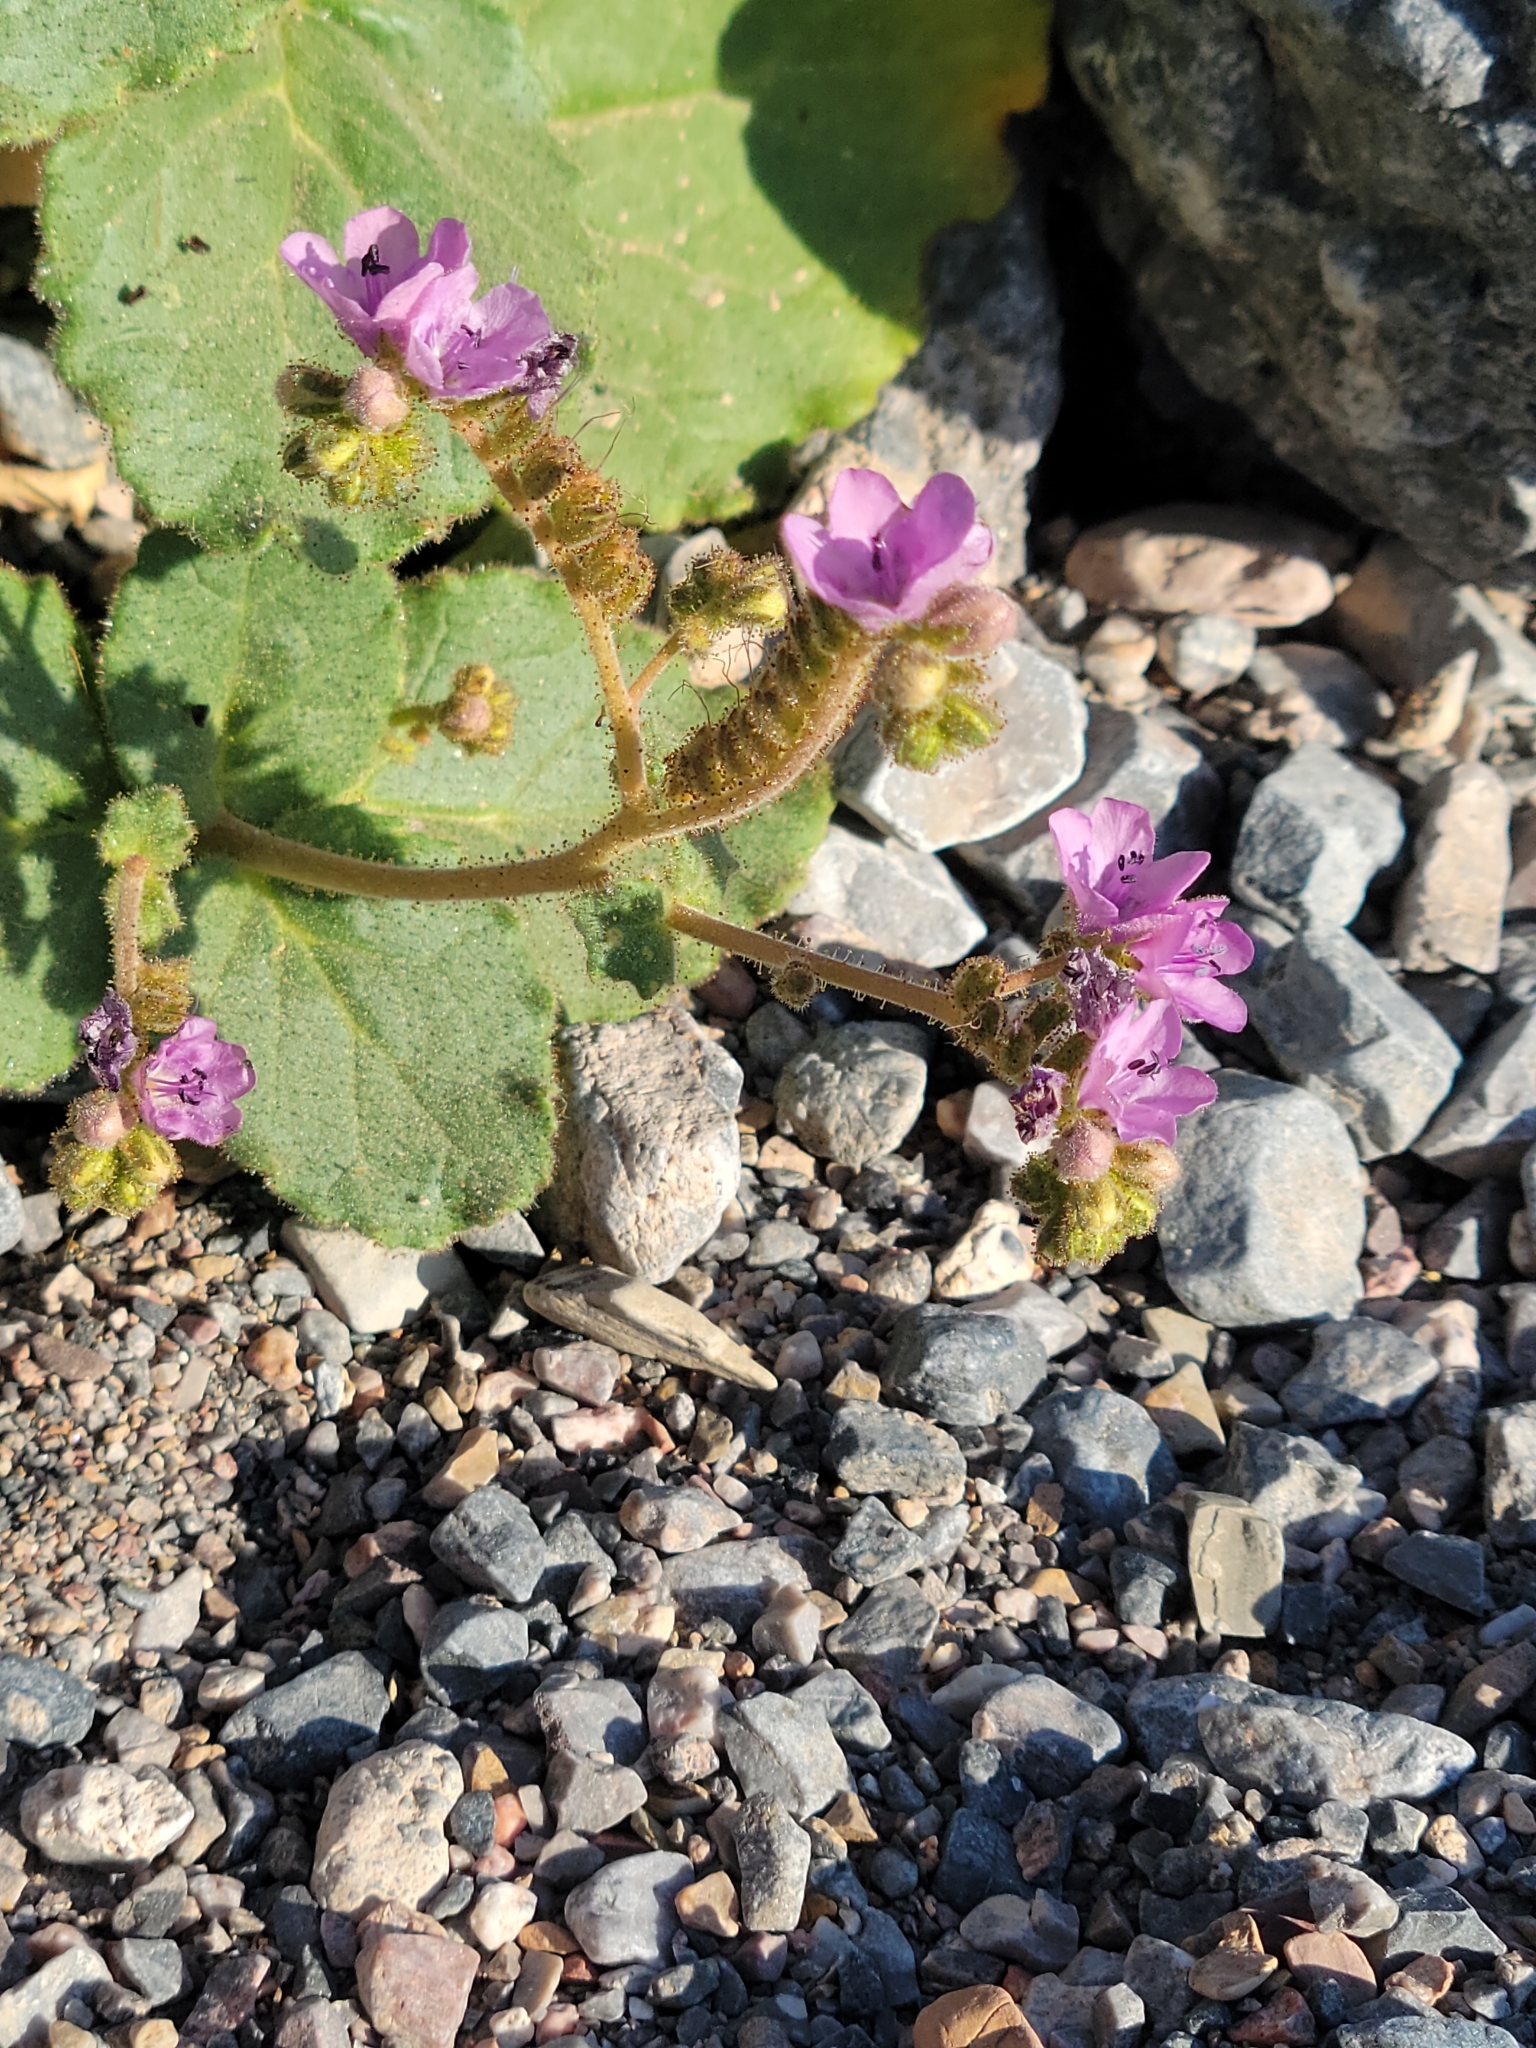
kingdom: Plantae
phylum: Tracheophyta
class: Magnoliopsida
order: Boraginales
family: Hydrophyllaceae
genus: Phacelia
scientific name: Phacelia calthifolia
